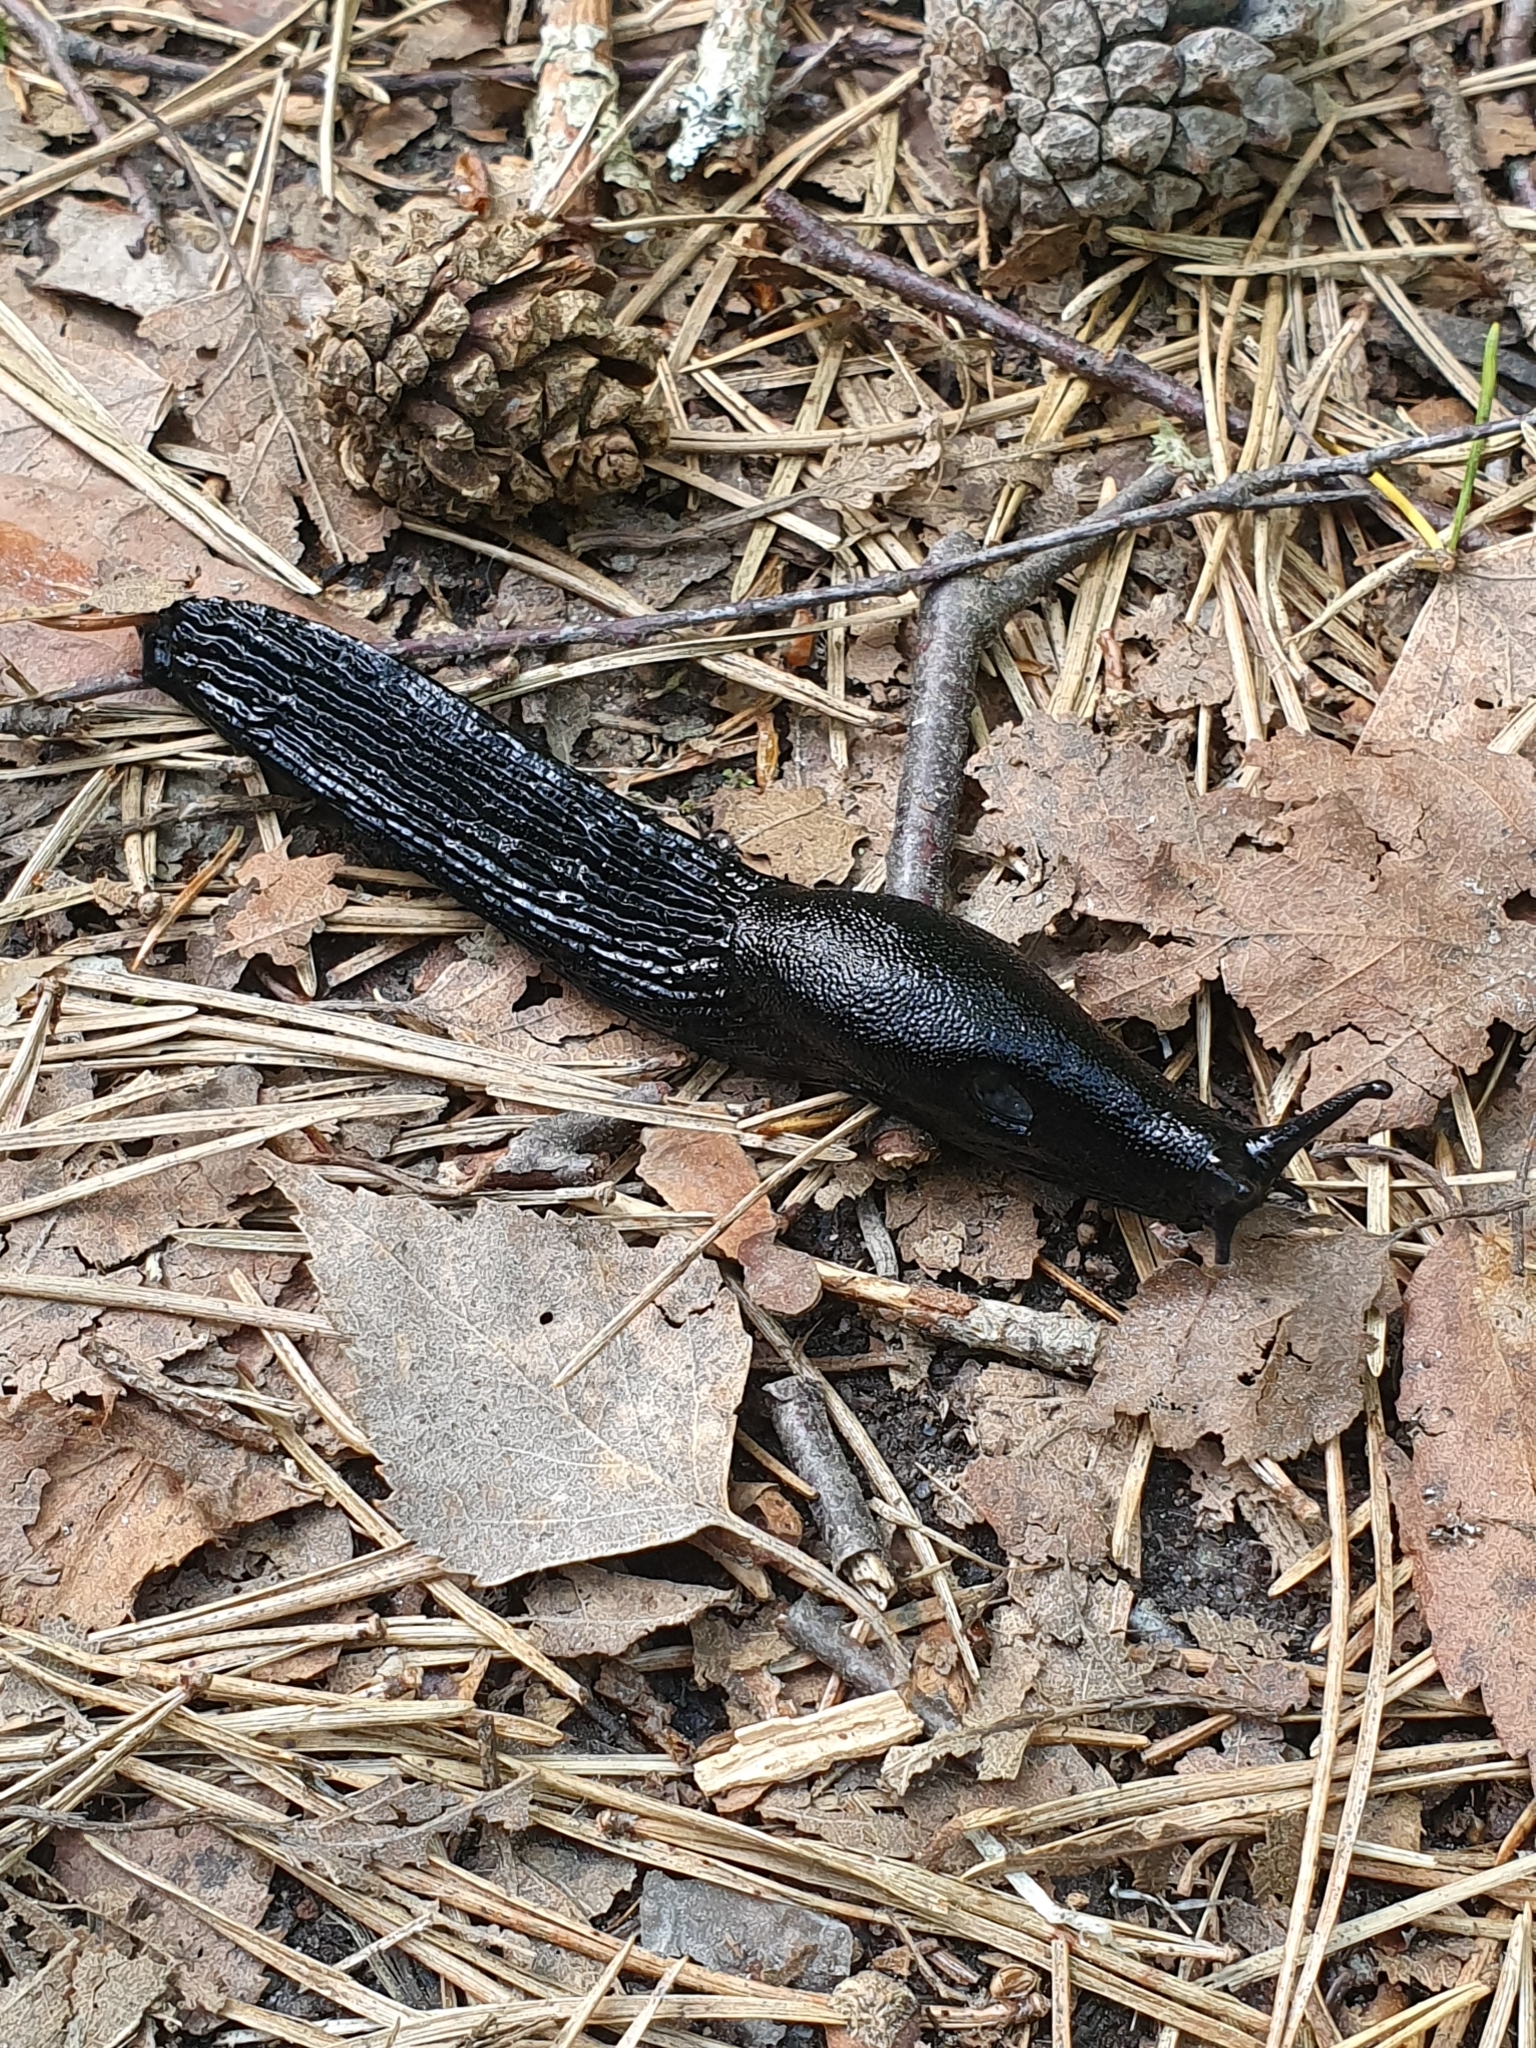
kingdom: Animalia
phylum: Mollusca
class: Gastropoda
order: Stylommatophora
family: Arionidae
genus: Arion
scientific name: Arion ater
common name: Black arion
